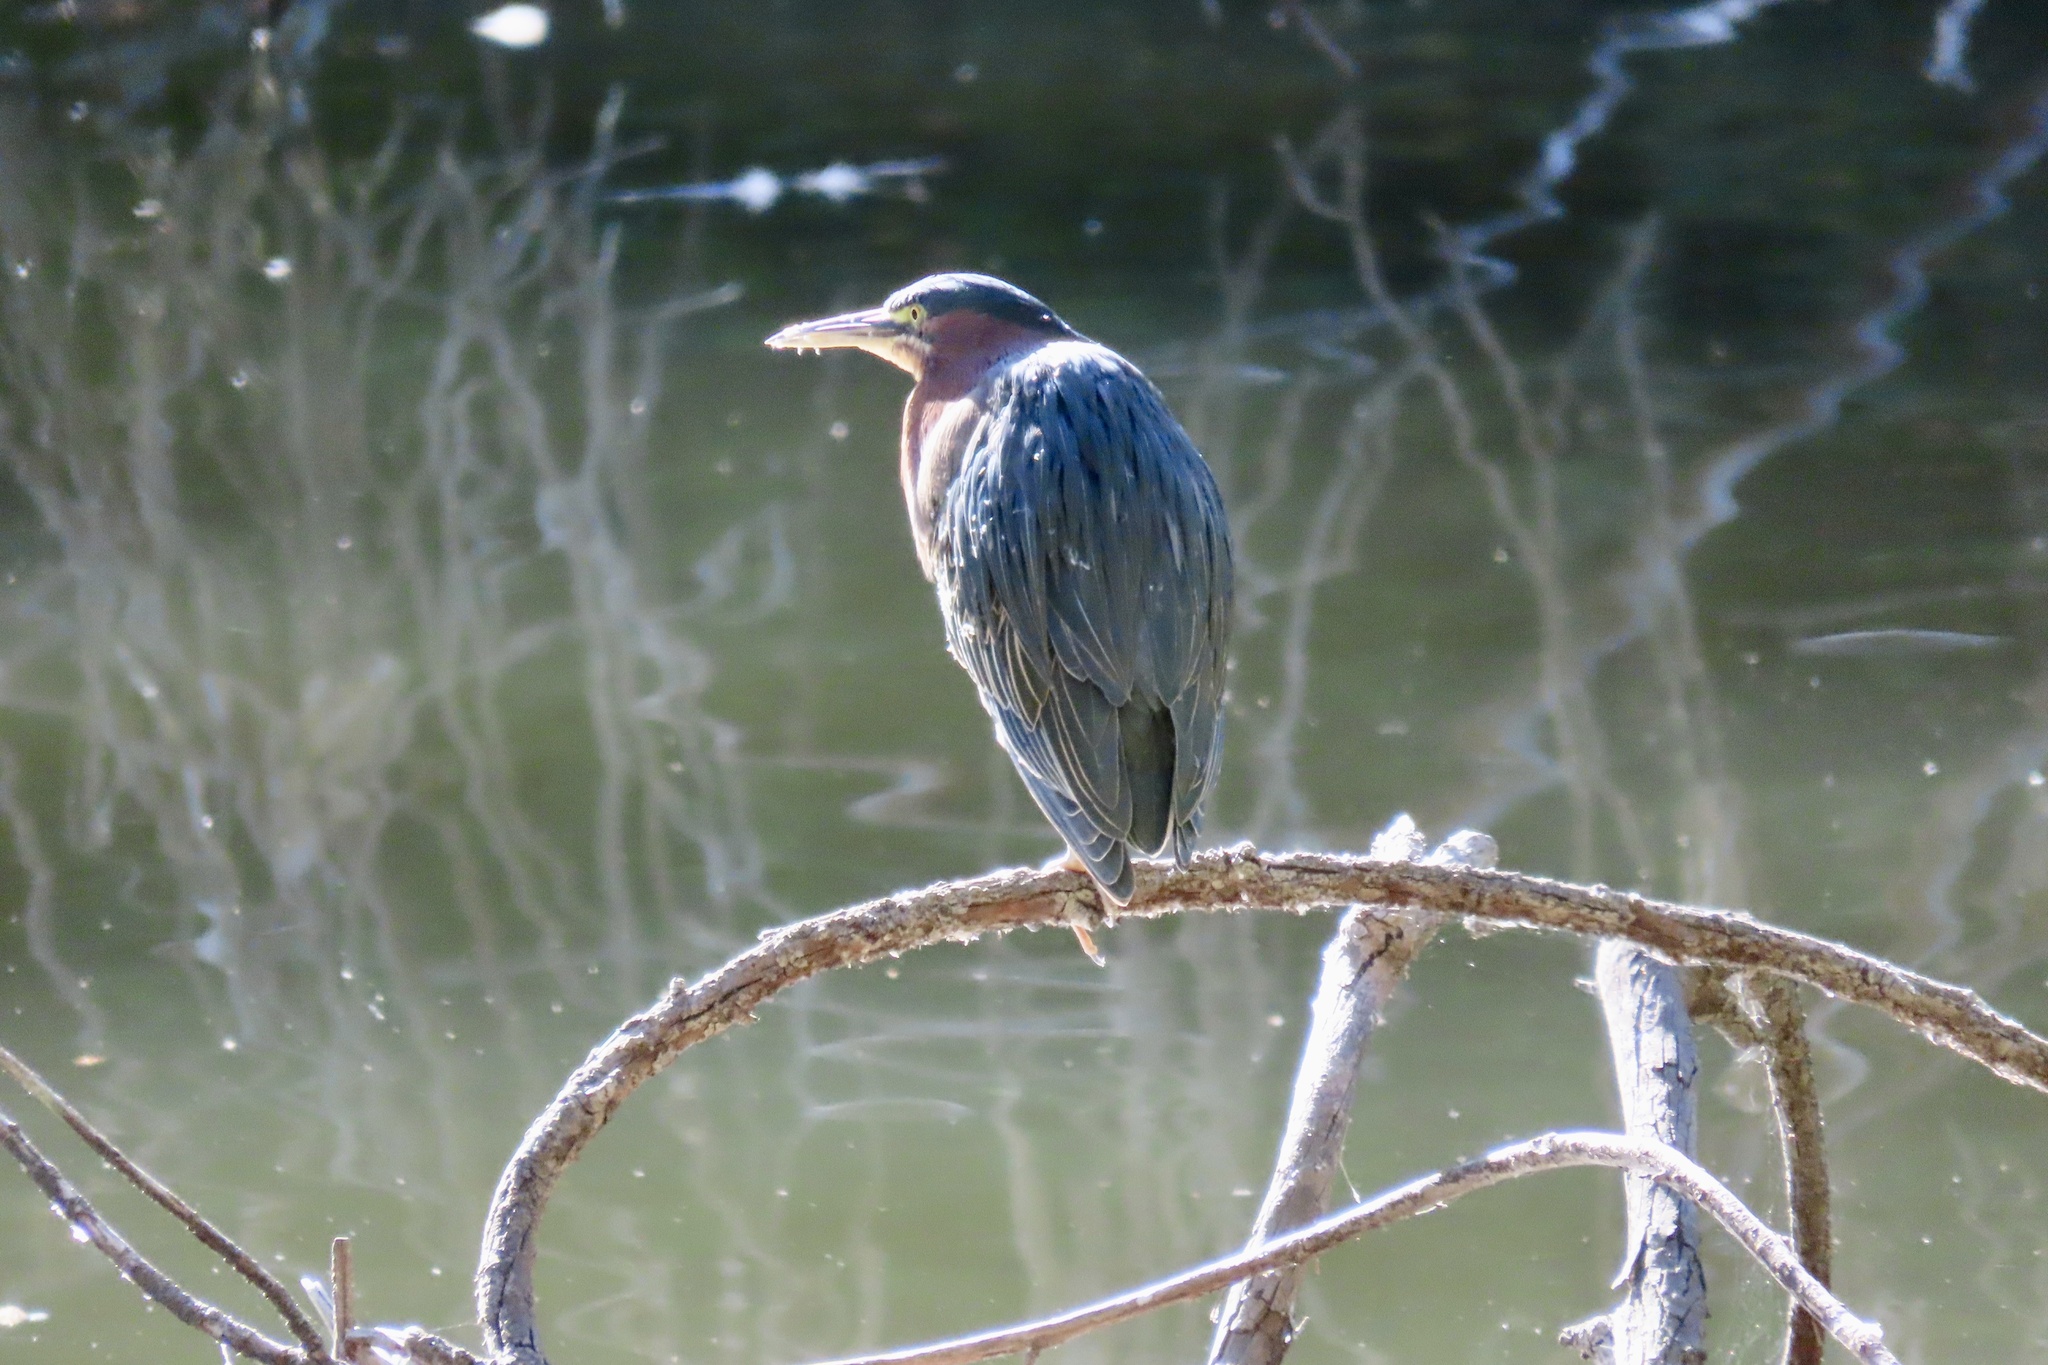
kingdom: Animalia
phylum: Chordata
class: Aves
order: Pelecaniformes
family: Ardeidae
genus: Butorides
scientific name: Butorides virescens
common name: Green heron
